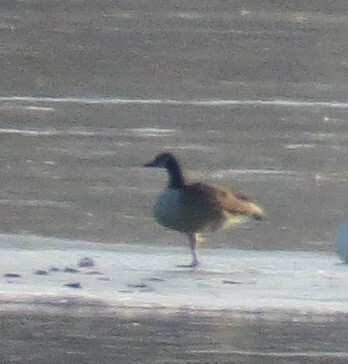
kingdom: Animalia
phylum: Chordata
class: Aves
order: Anseriformes
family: Anatidae
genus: Branta
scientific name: Branta canadensis
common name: Canada goose
